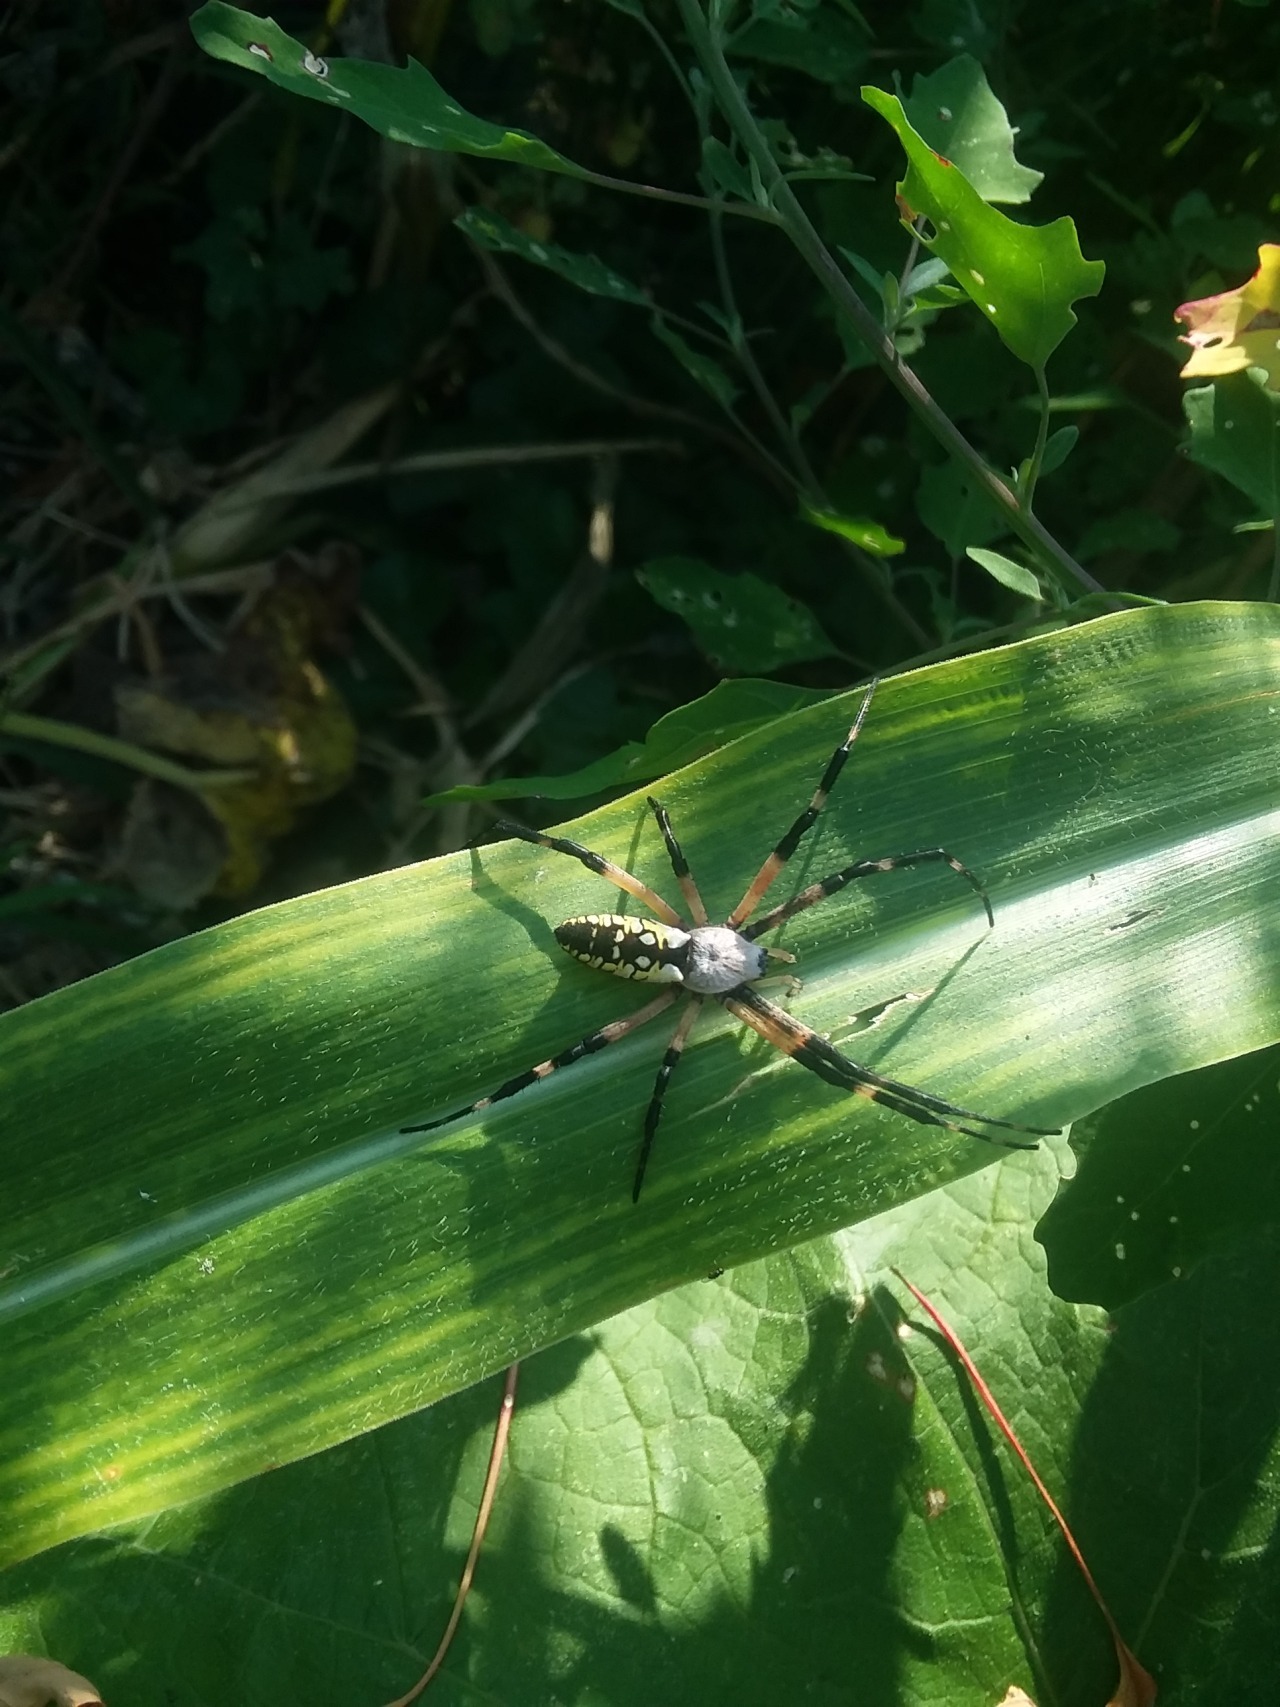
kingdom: Animalia
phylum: Arthropoda
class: Arachnida
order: Araneae
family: Araneidae
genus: Argiope
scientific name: Argiope aurantia
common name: Orb weavers
